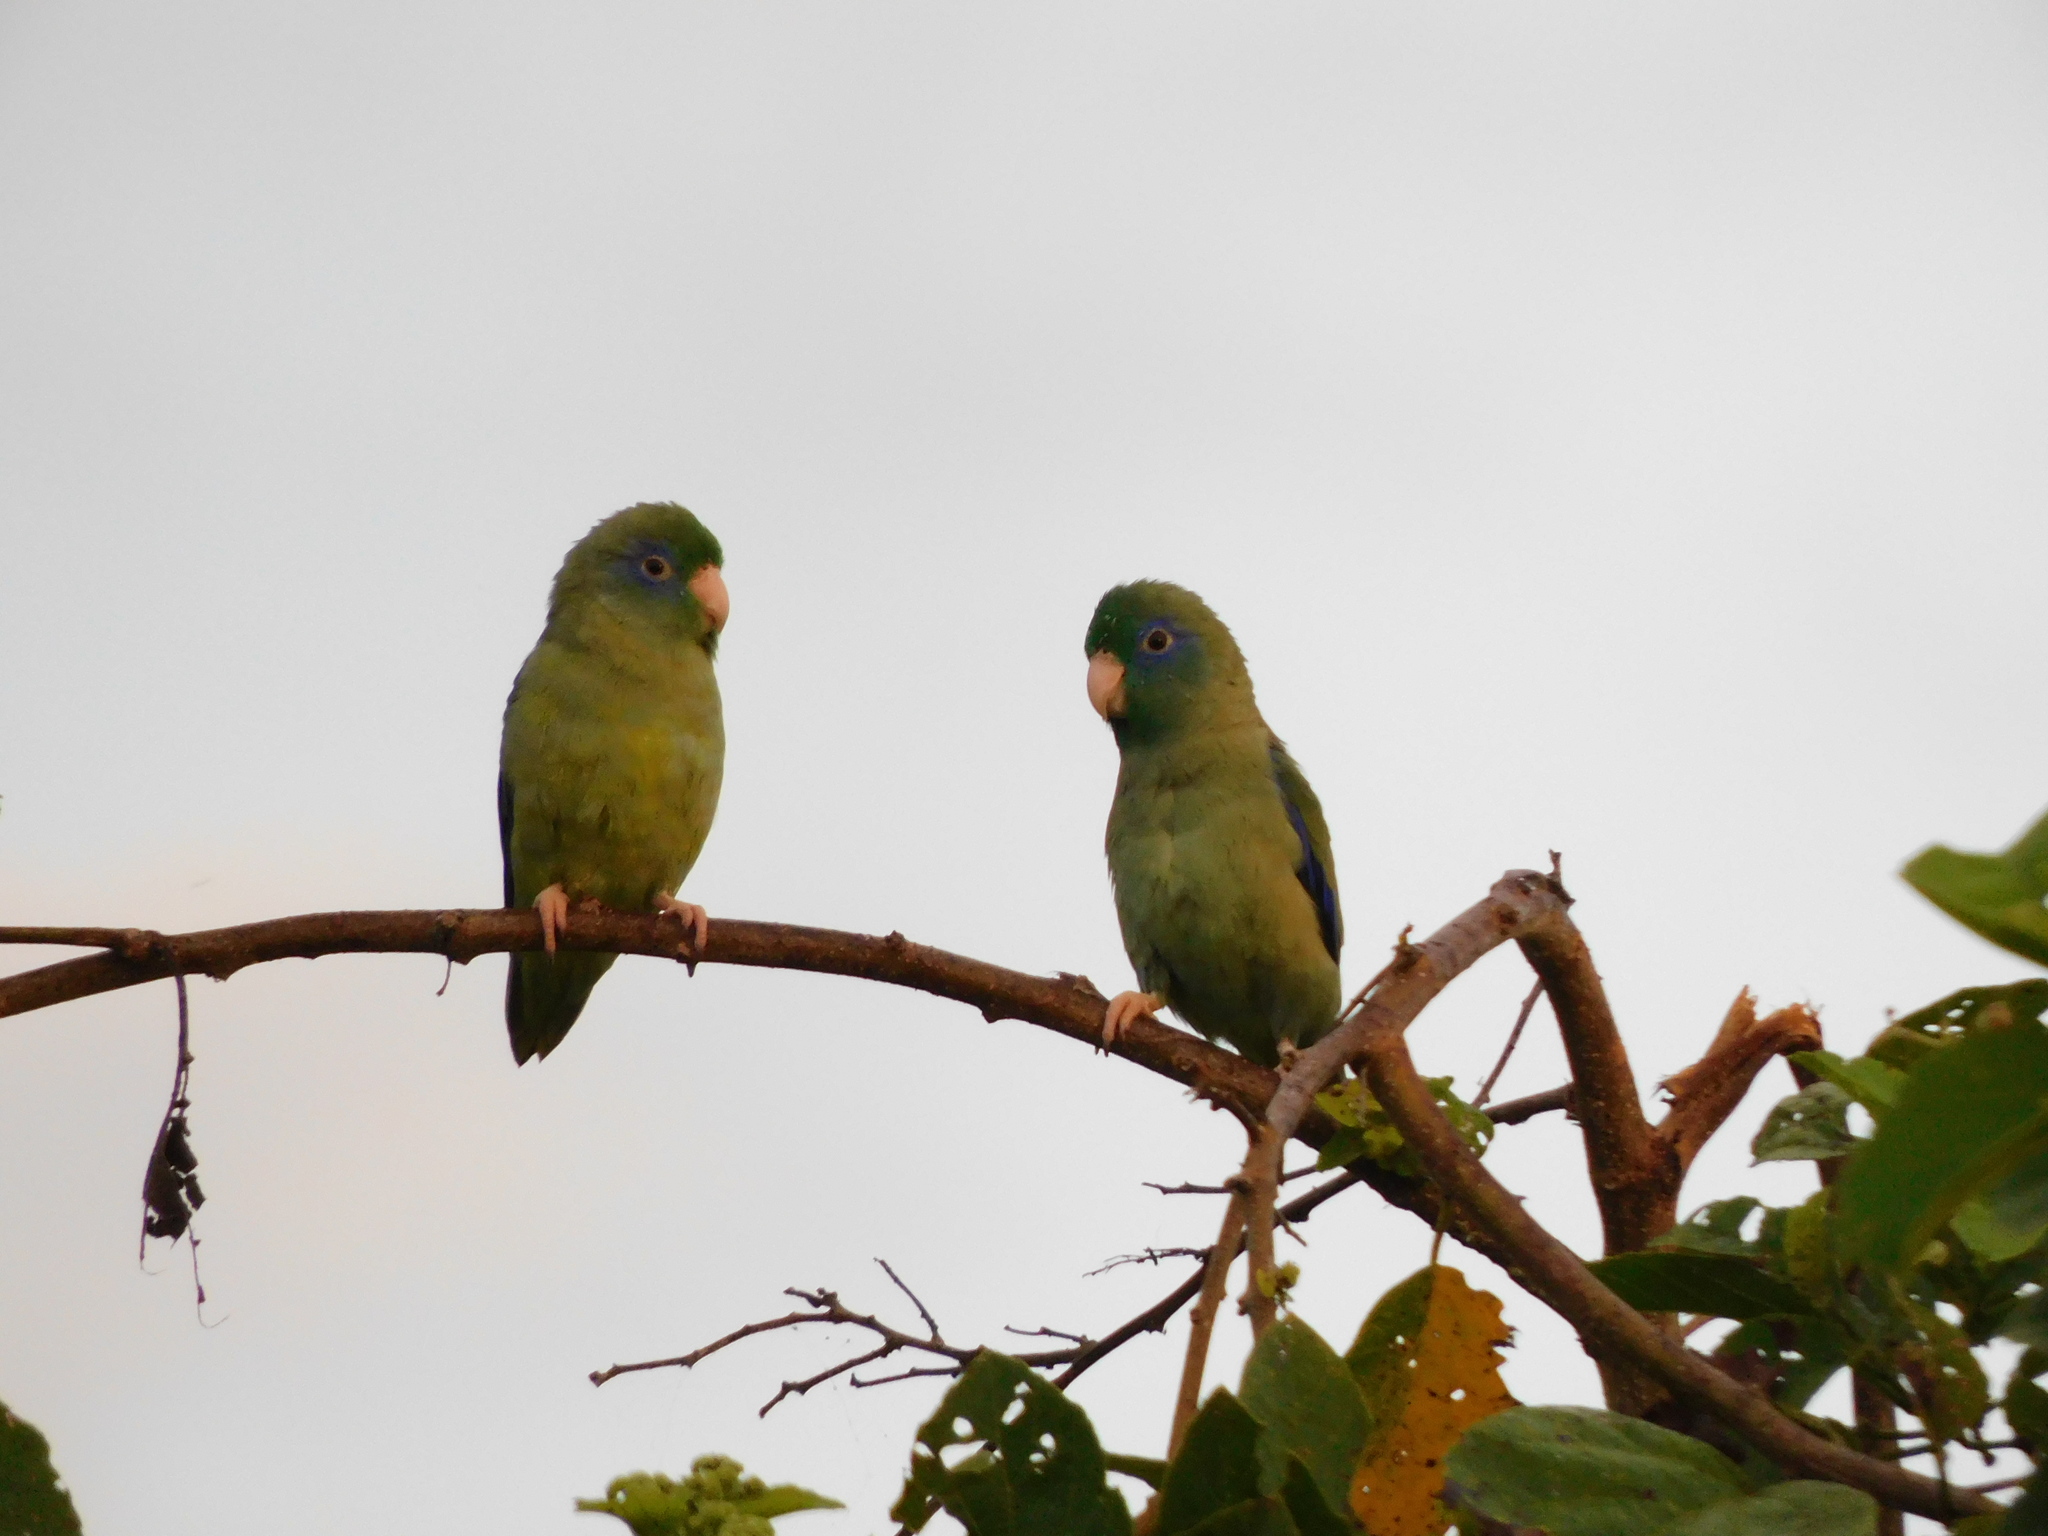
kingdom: Animalia
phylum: Chordata
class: Aves
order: Psittaciformes
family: Psittacidae
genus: Forpus
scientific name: Forpus conspicillatus
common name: Spectacled parrotlet
